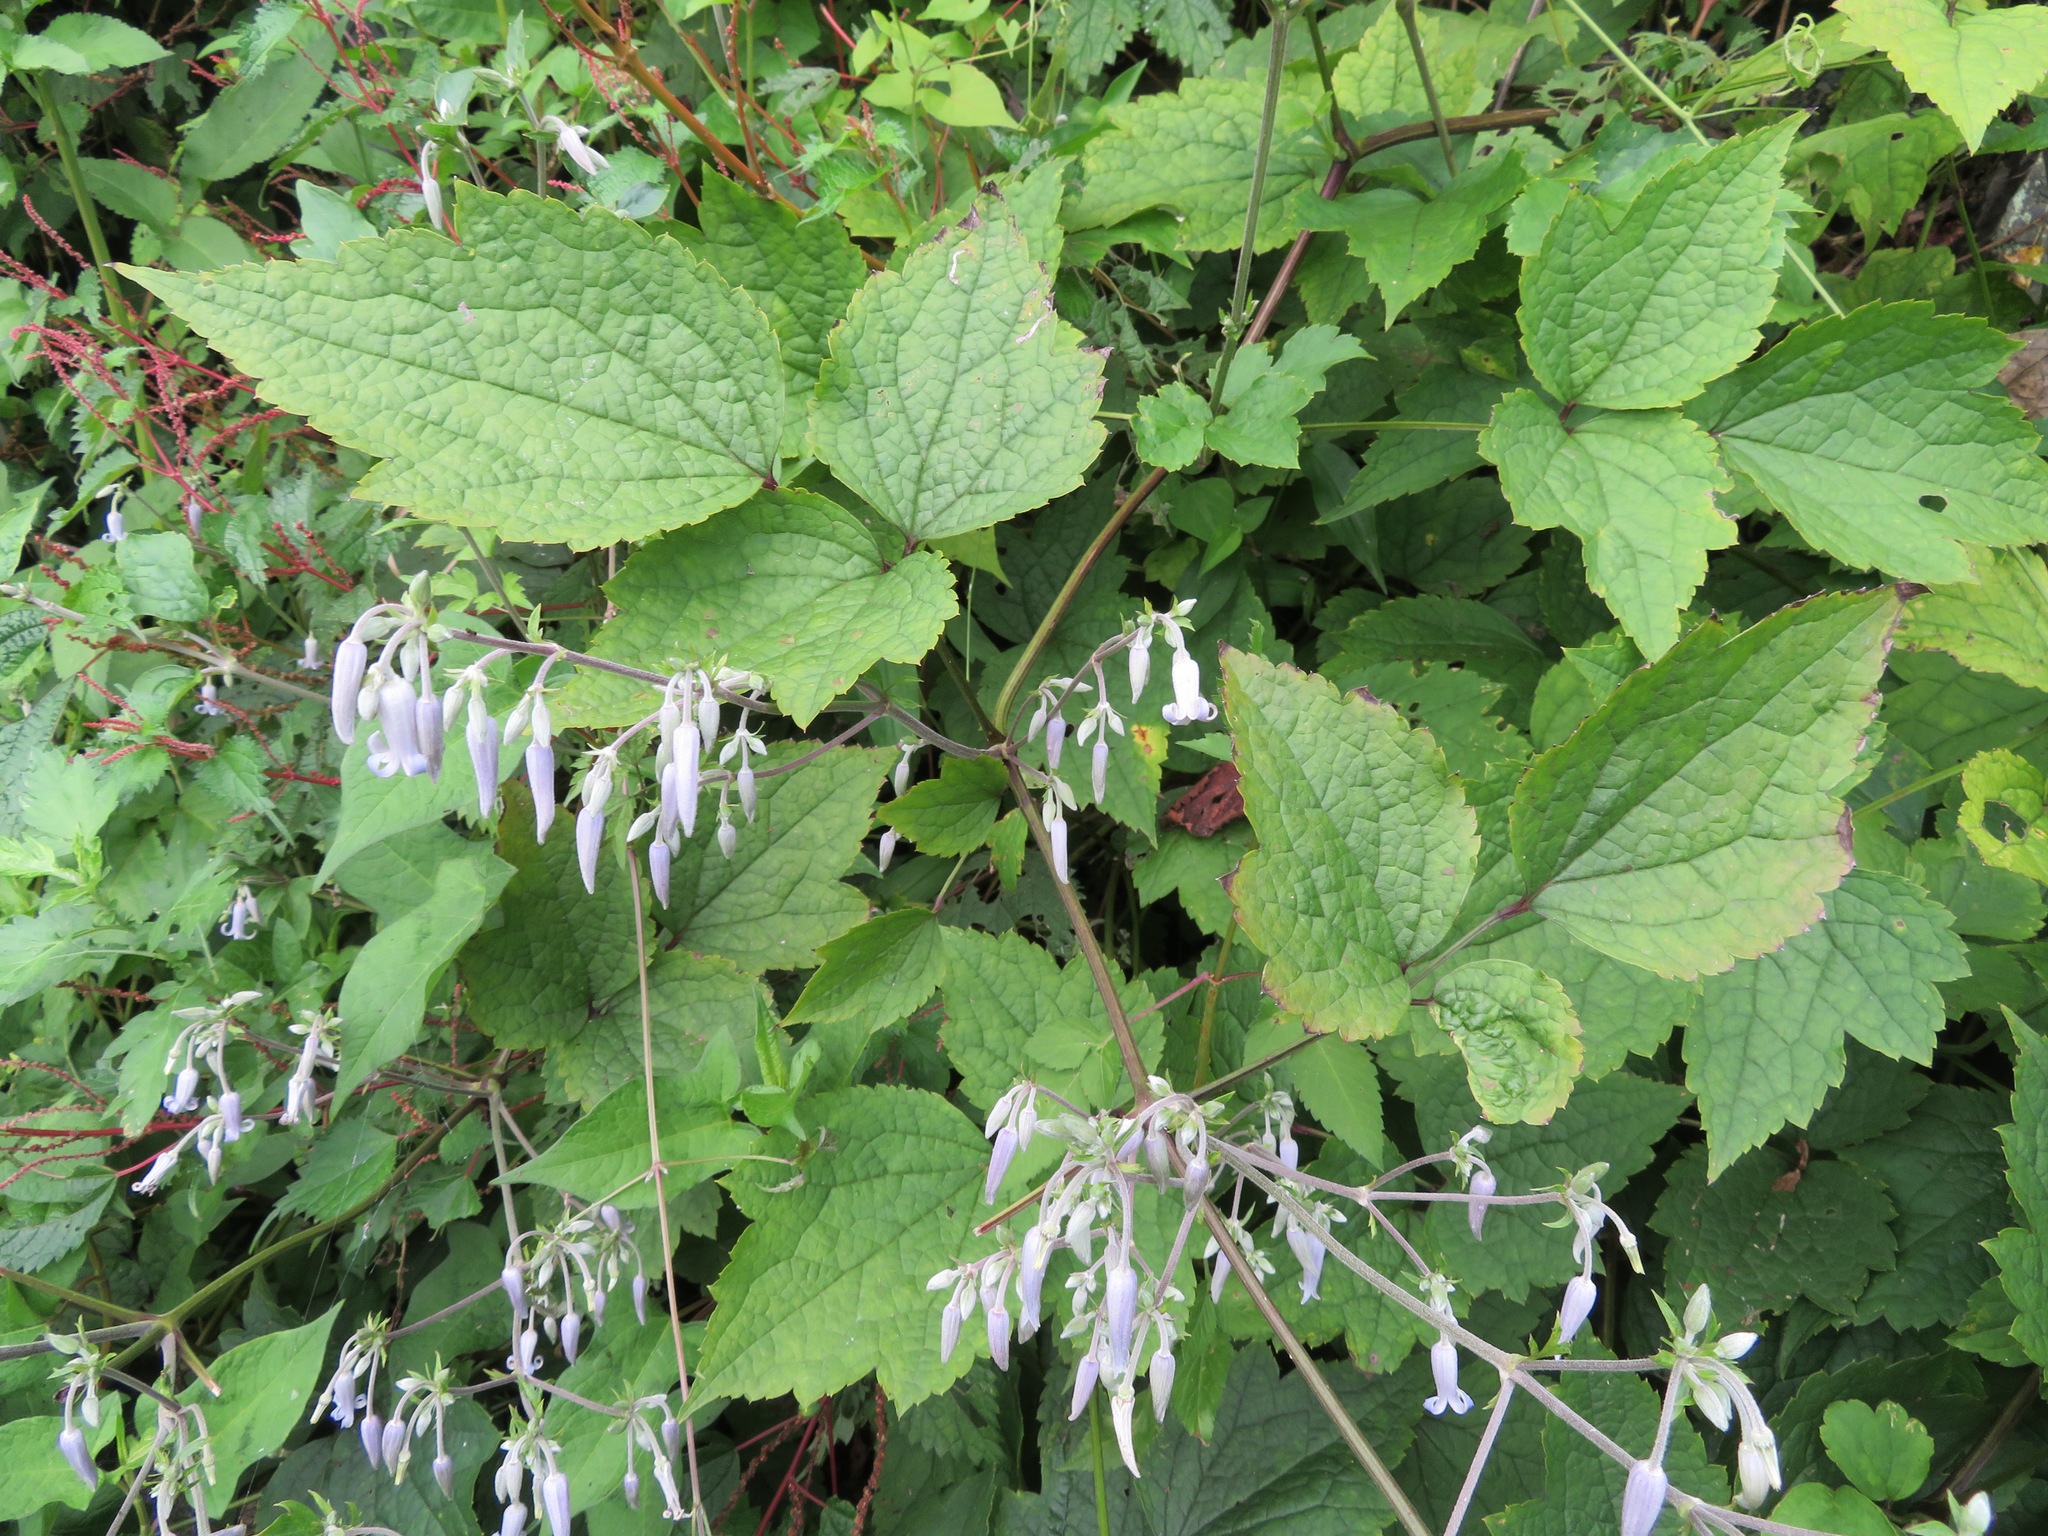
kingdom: Plantae
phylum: Tracheophyta
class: Magnoliopsida
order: Ranunculales
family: Ranunculaceae
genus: Clematis
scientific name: Clematis stans
